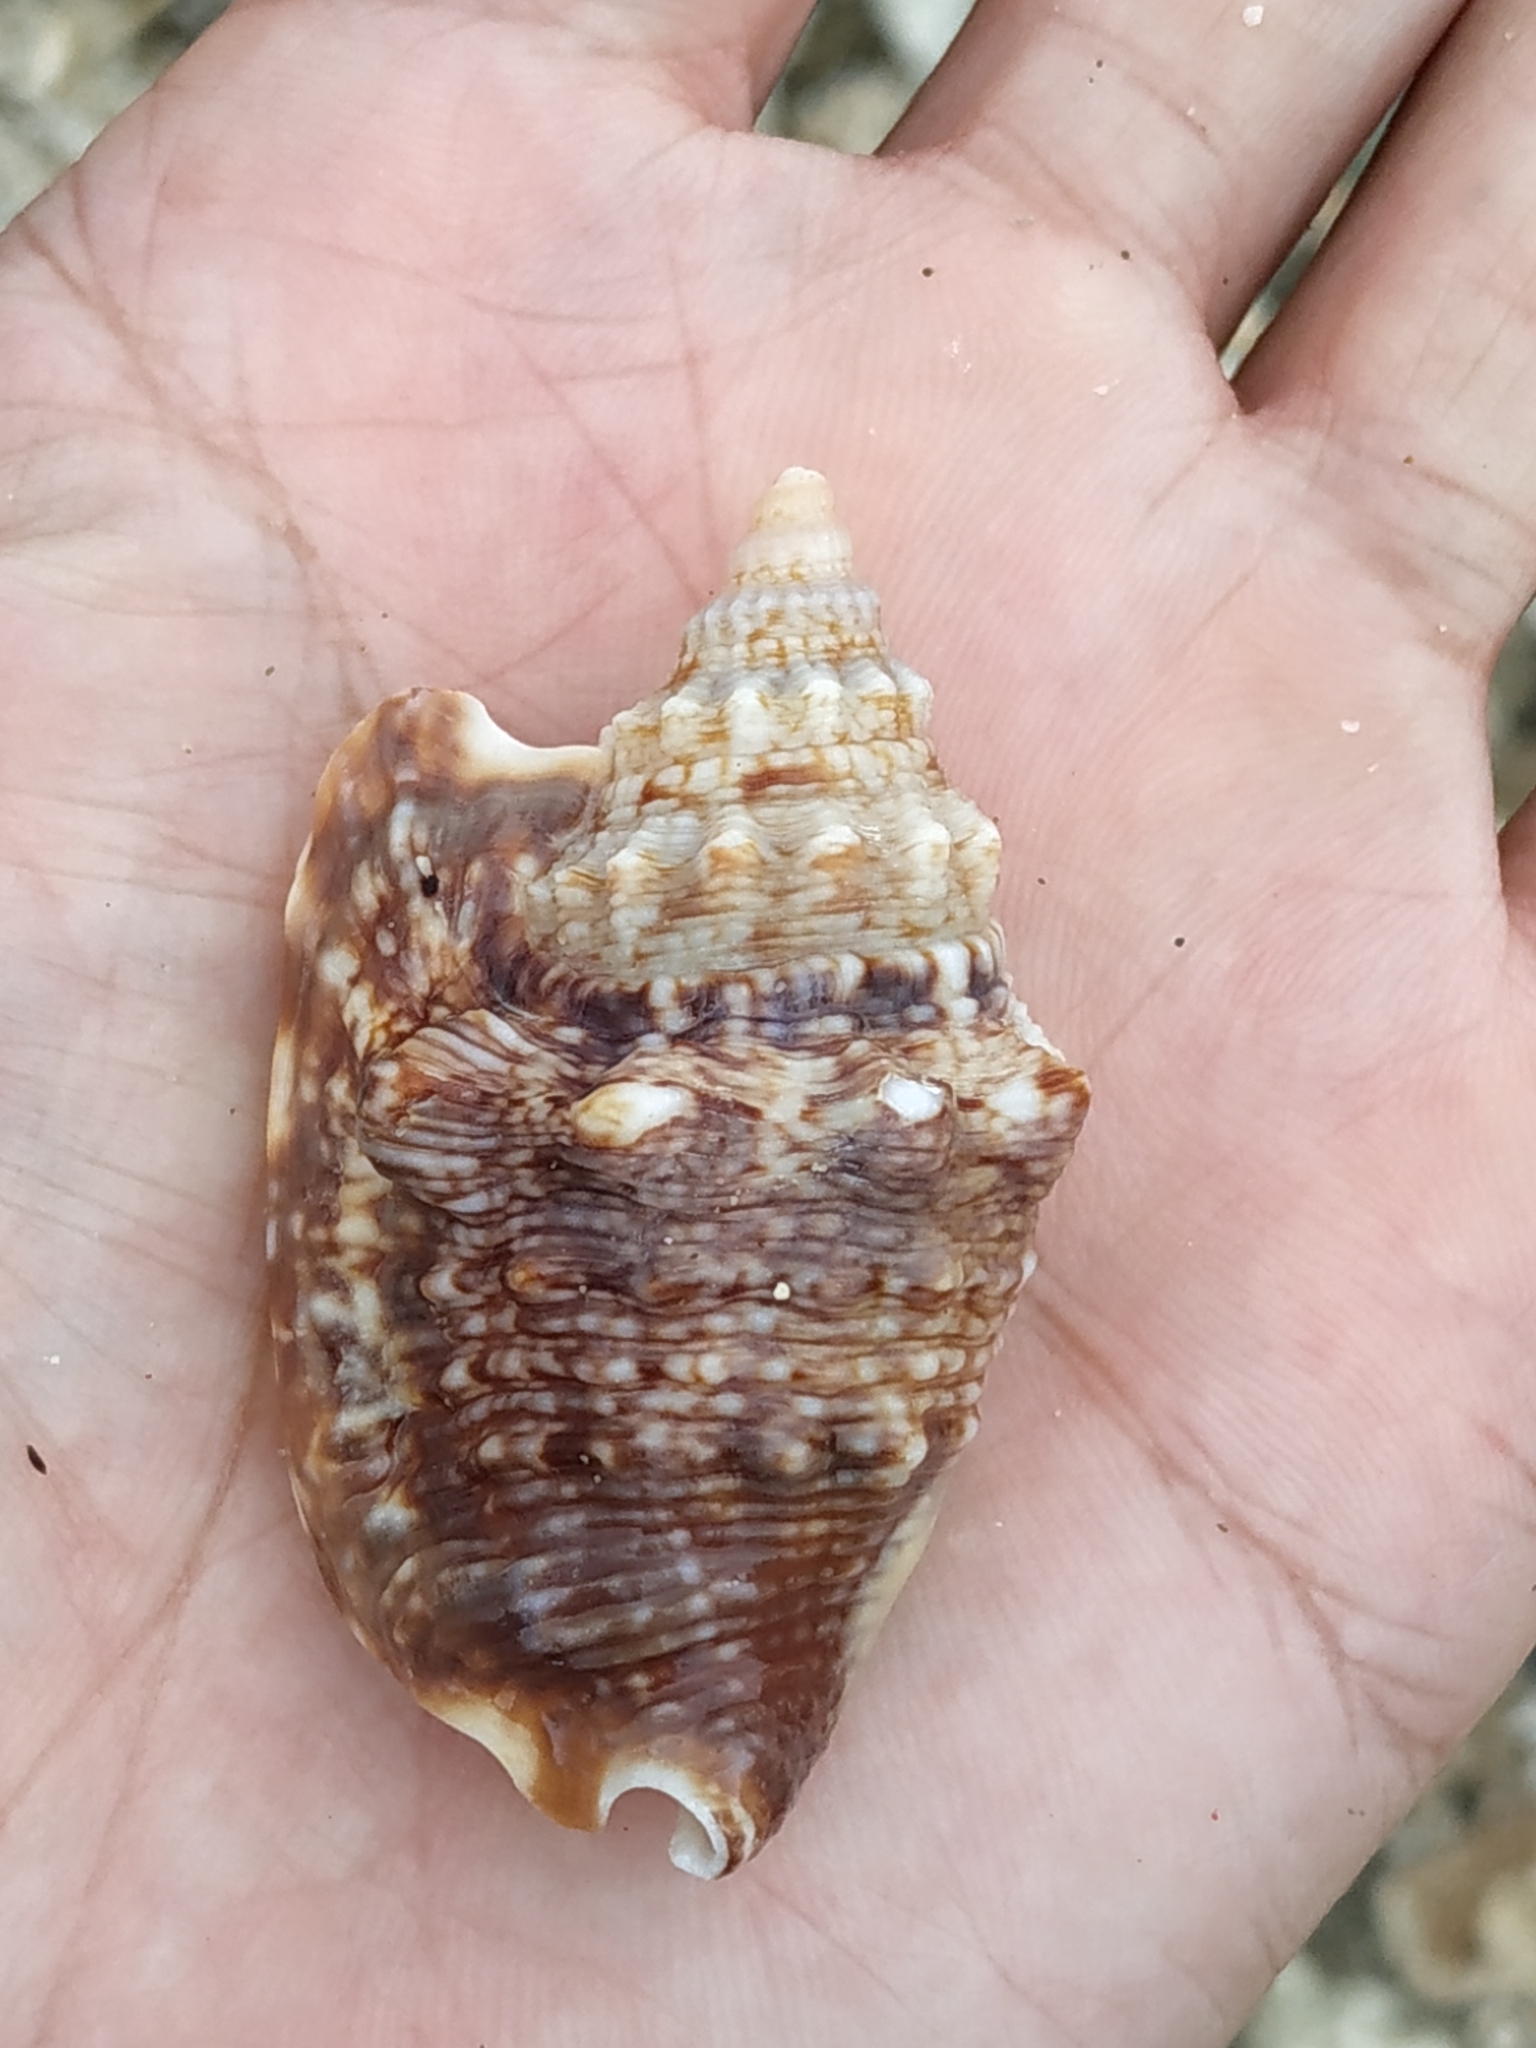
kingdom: Animalia
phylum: Mollusca
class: Gastropoda
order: Littorinimorpha
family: Strombidae
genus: Euprotomus
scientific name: Euprotomus aurisdianae
